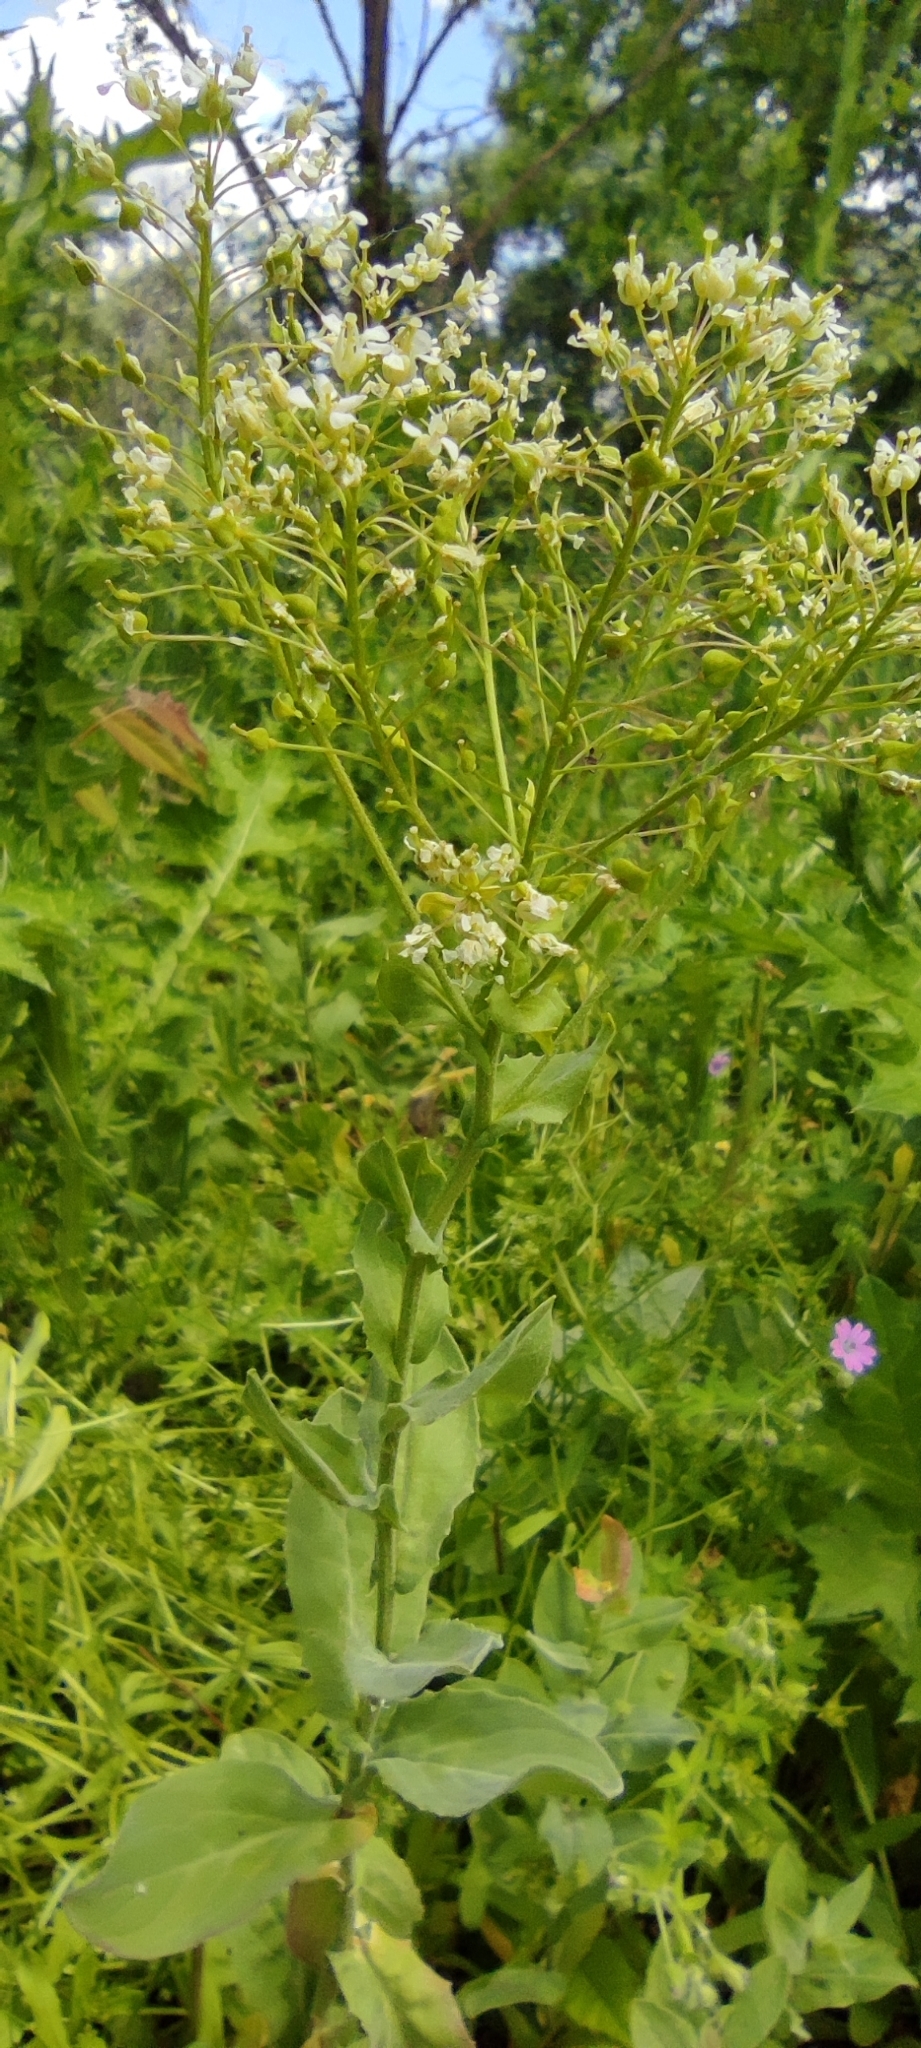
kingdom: Plantae
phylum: Tracheophyta
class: Magnoliopsida
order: Brassicales
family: Brassicaceae
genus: Lepidium
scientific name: Lepidium draba
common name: Hoary cress
